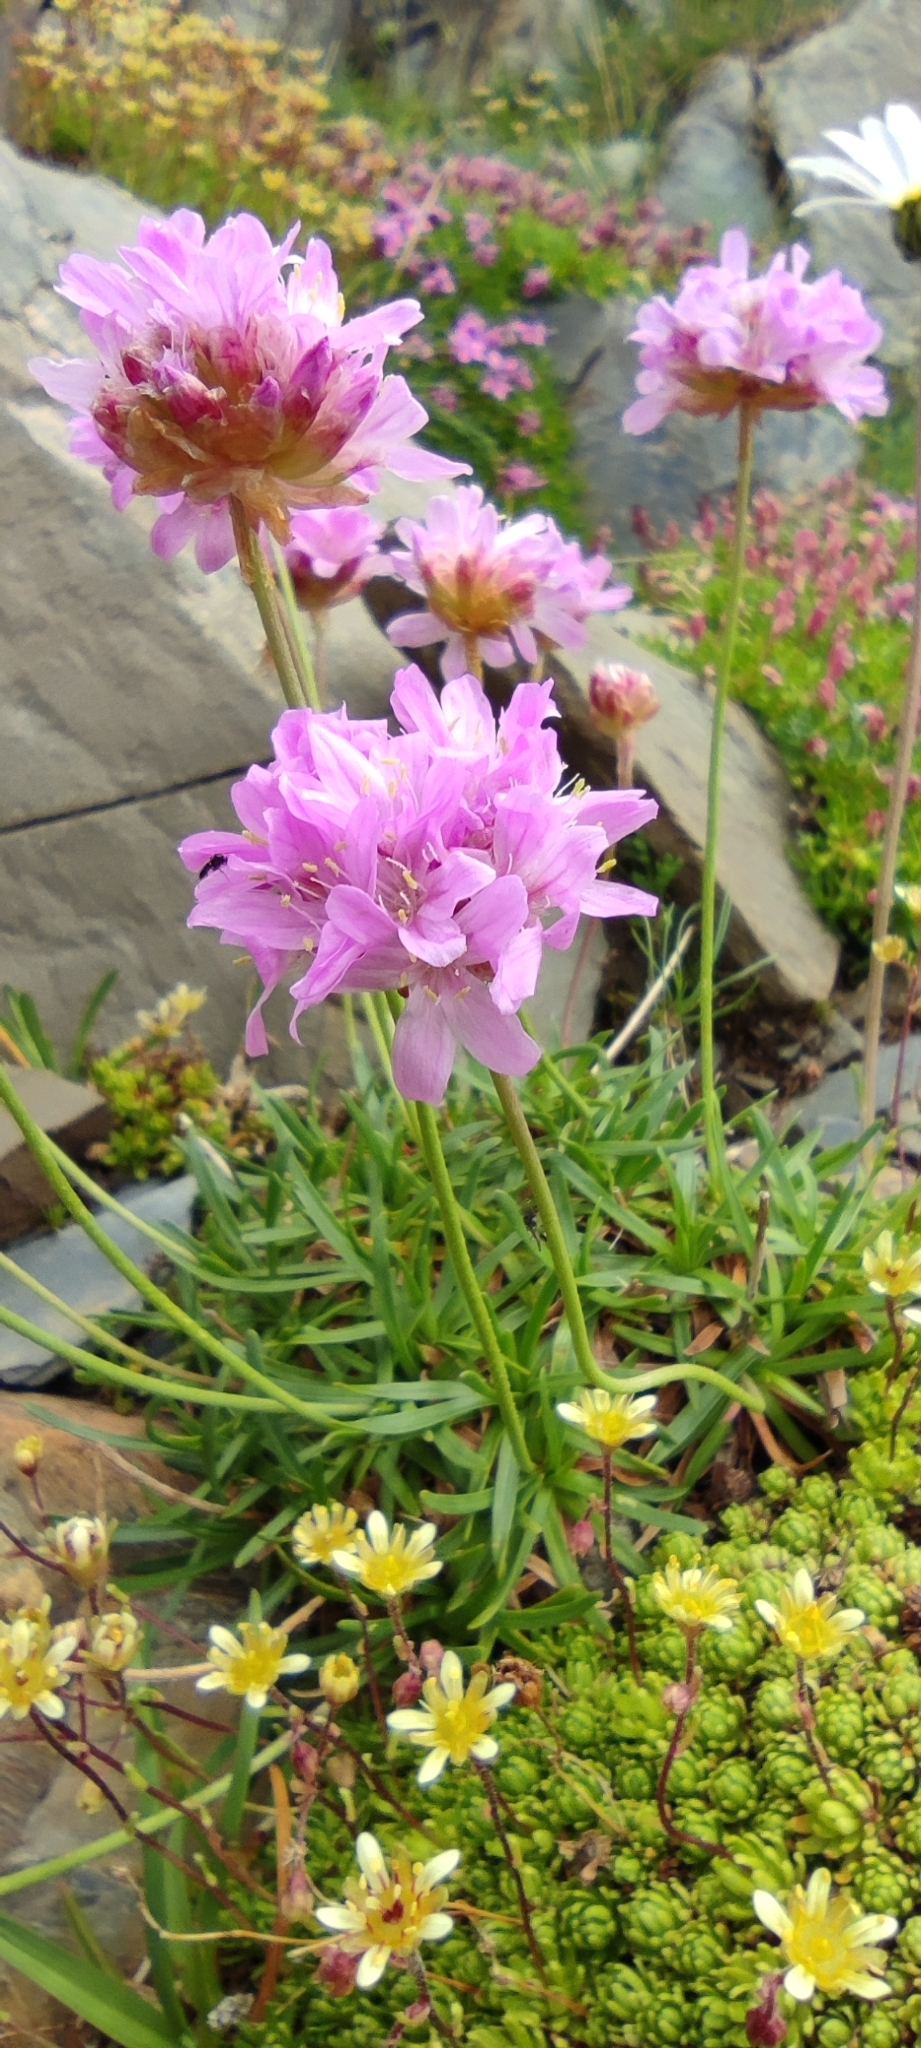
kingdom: Plantae
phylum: Tracheophyta
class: Magnoliopsida
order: Caryophyllales
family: Plumbaginaceae
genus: Armeria
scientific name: Armeria alpina
